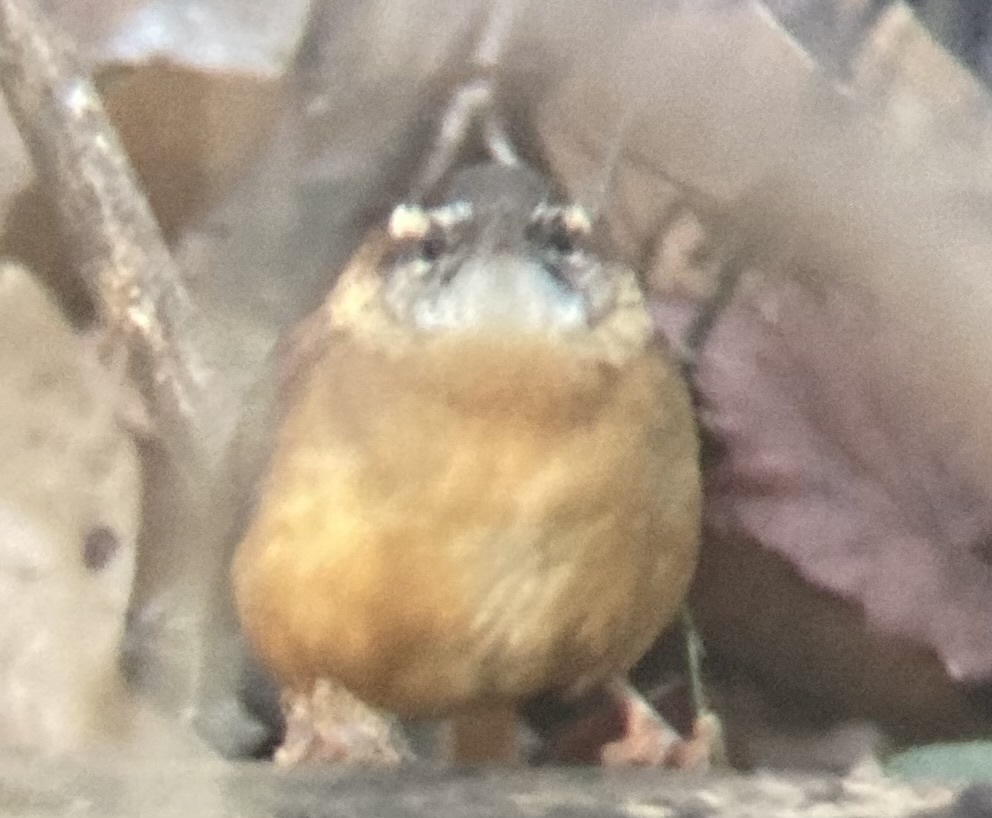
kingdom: Animalia
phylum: Chordata
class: Aves
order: Passeriformes
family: Troglodytidae
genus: Thryothorus
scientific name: Thryothorus ludovicianus
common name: Carolina wren
